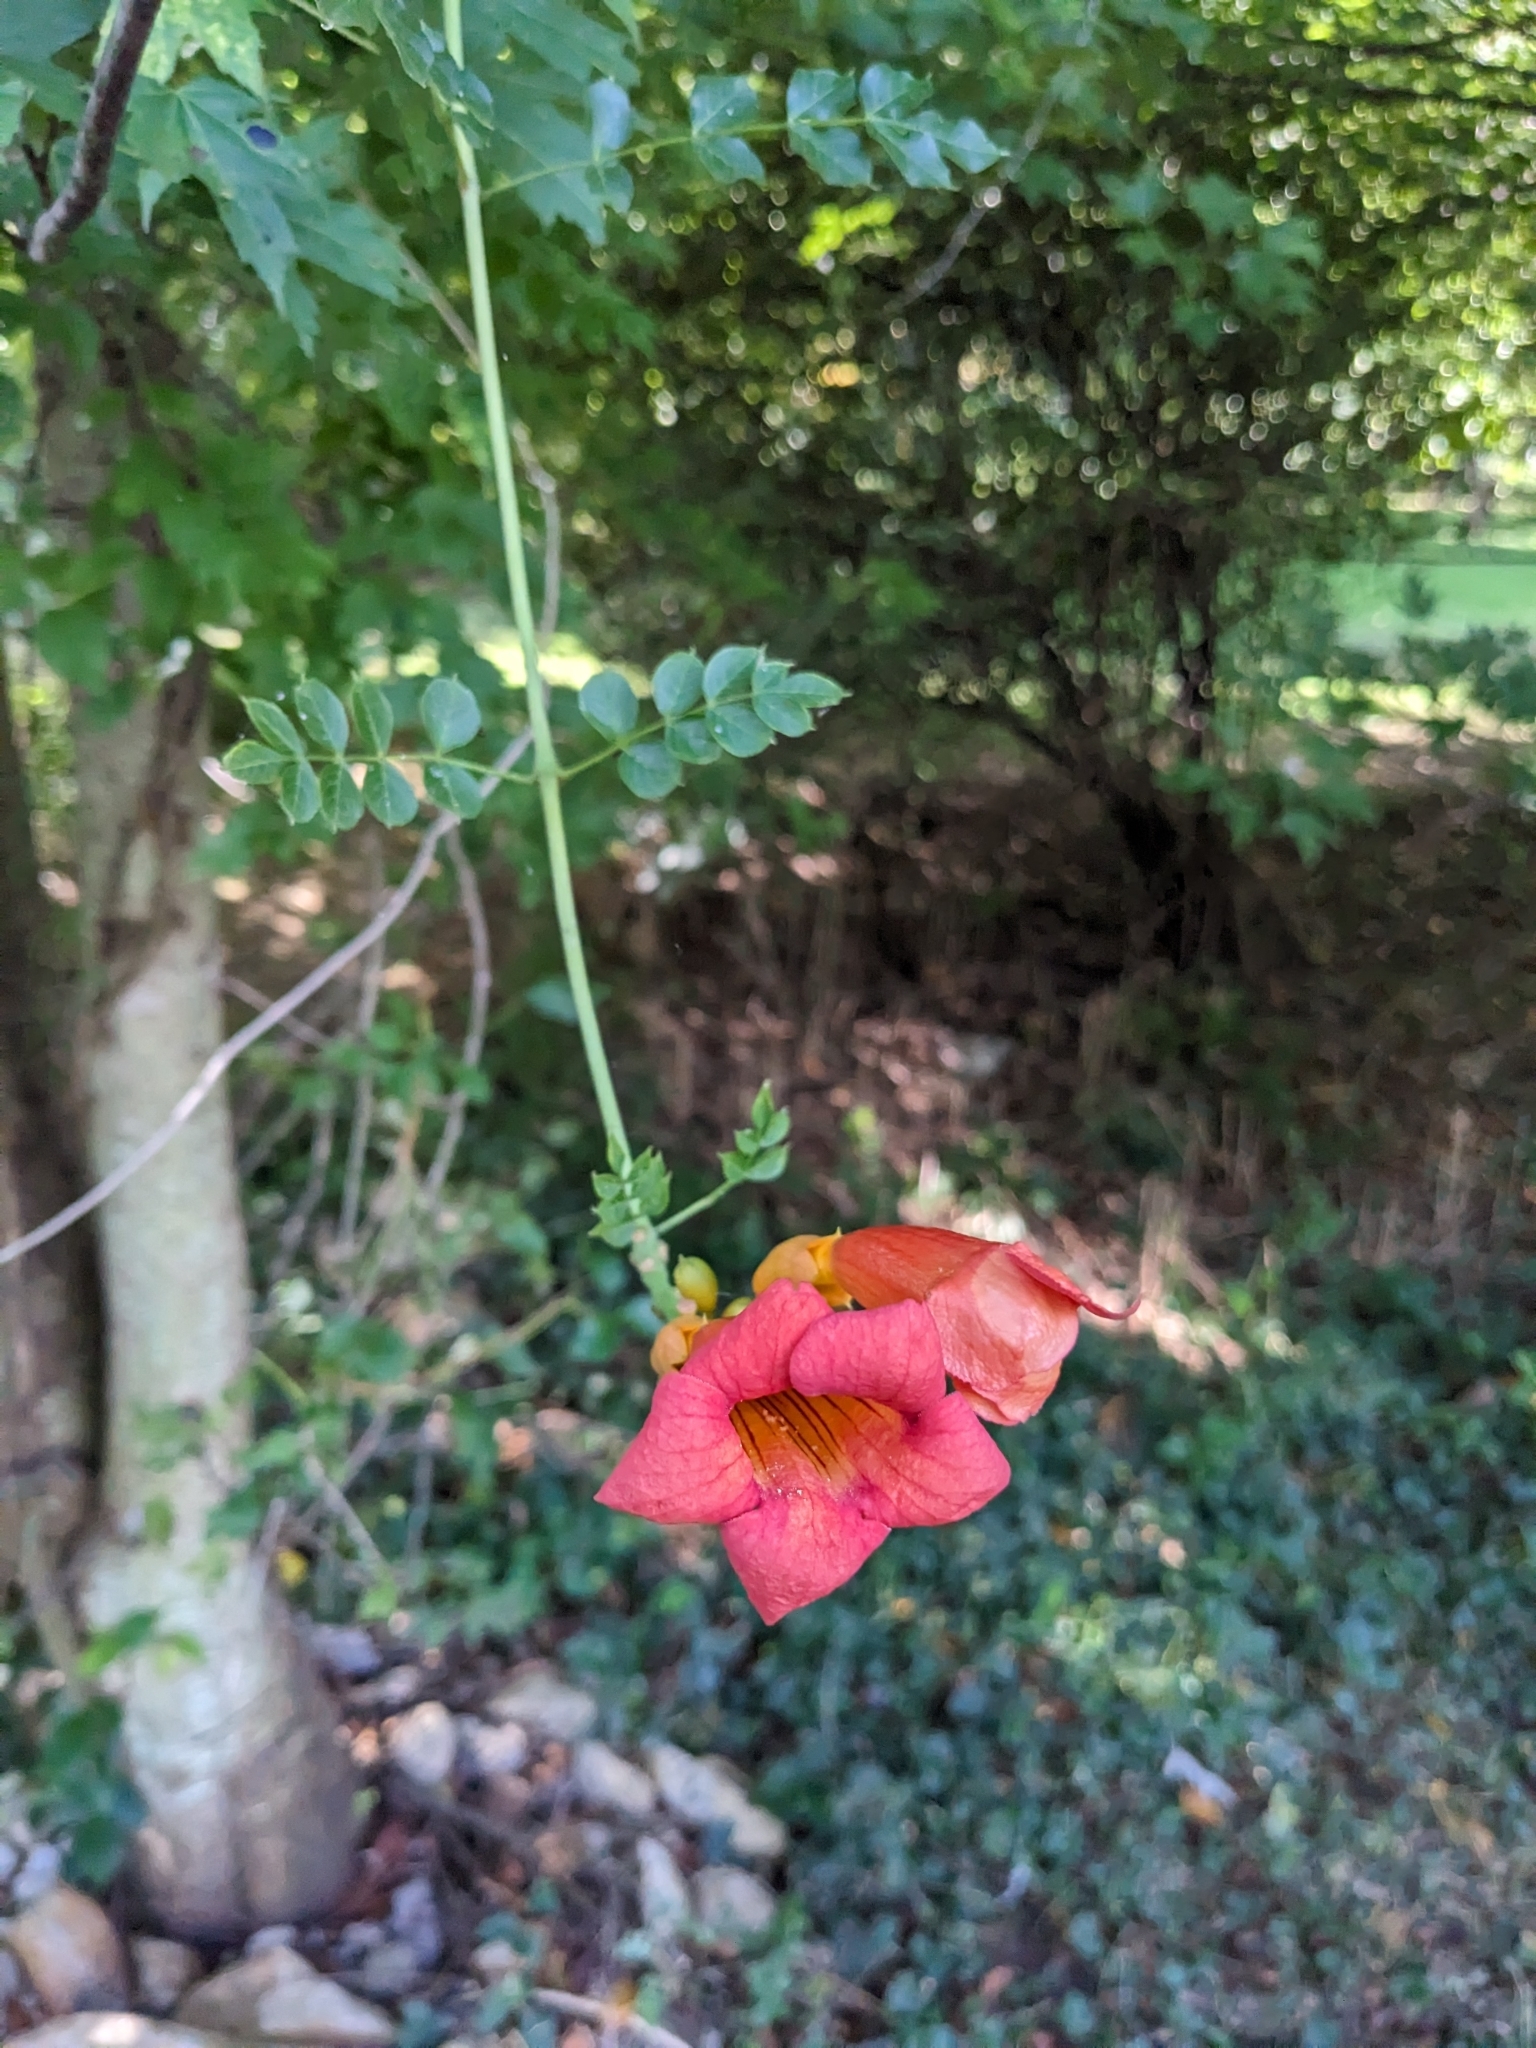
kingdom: Plantae
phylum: Tracheophyta
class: Magnoliopsida
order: Lamiales
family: Bignoniaceae
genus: Campsis
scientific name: Campsis radicans
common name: Trumpet-creeper
